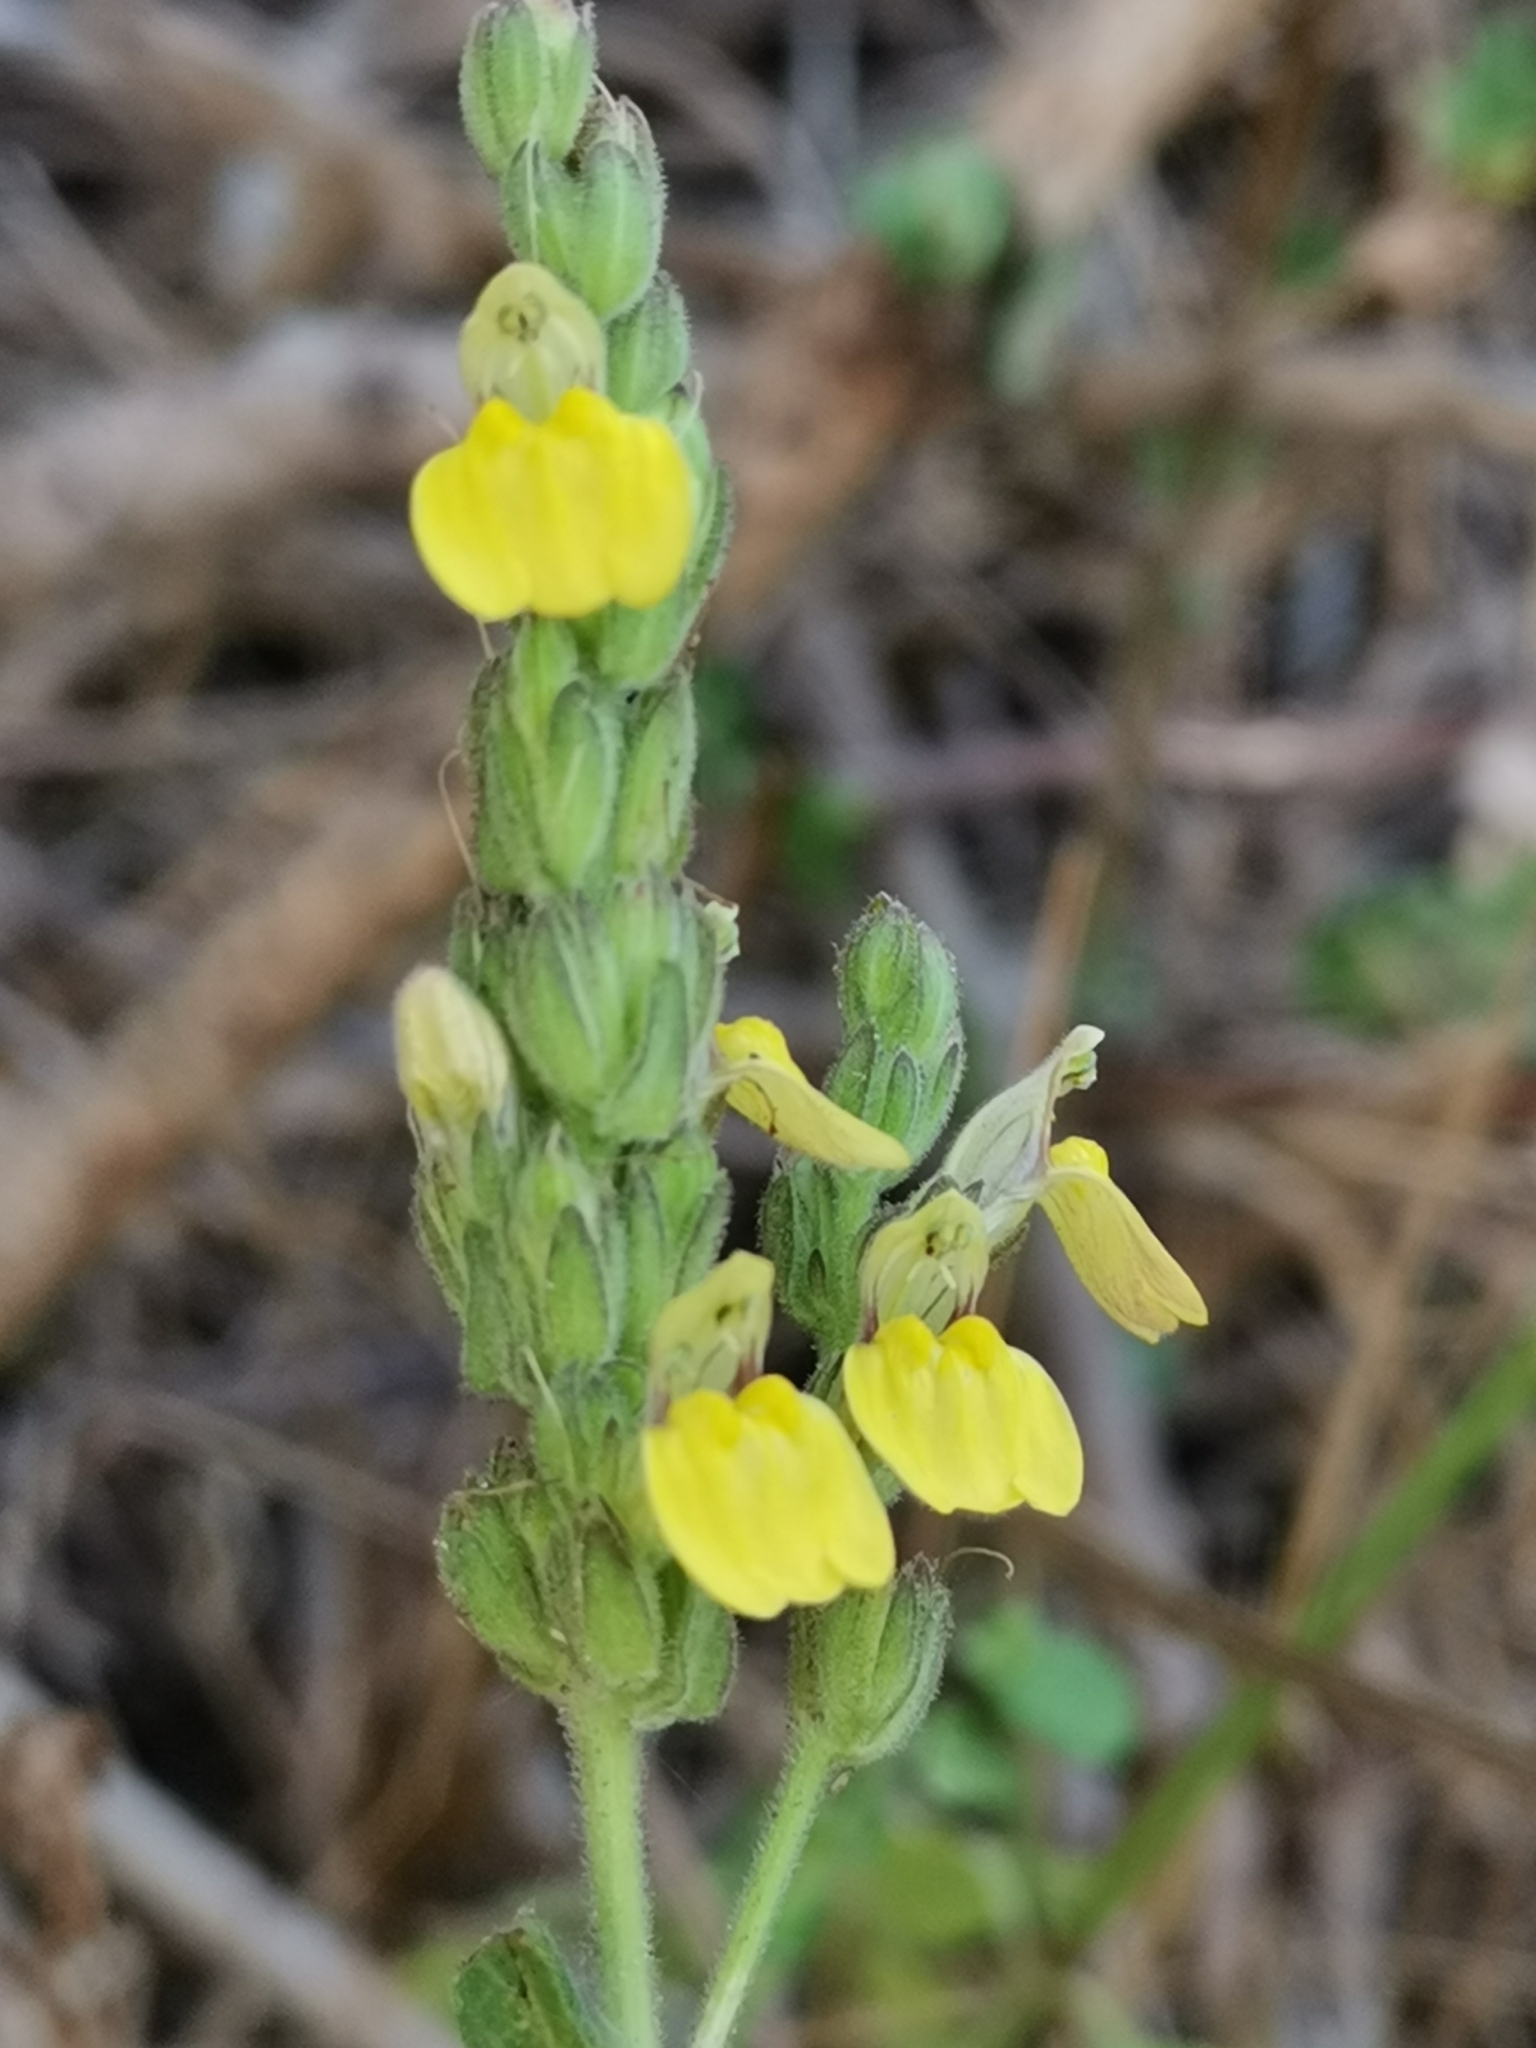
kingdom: Plantae
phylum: Tracheophyta
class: Magnoliopsida
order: Lamiales
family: Acanthaceae
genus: Justicia
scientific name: Justicia flava
